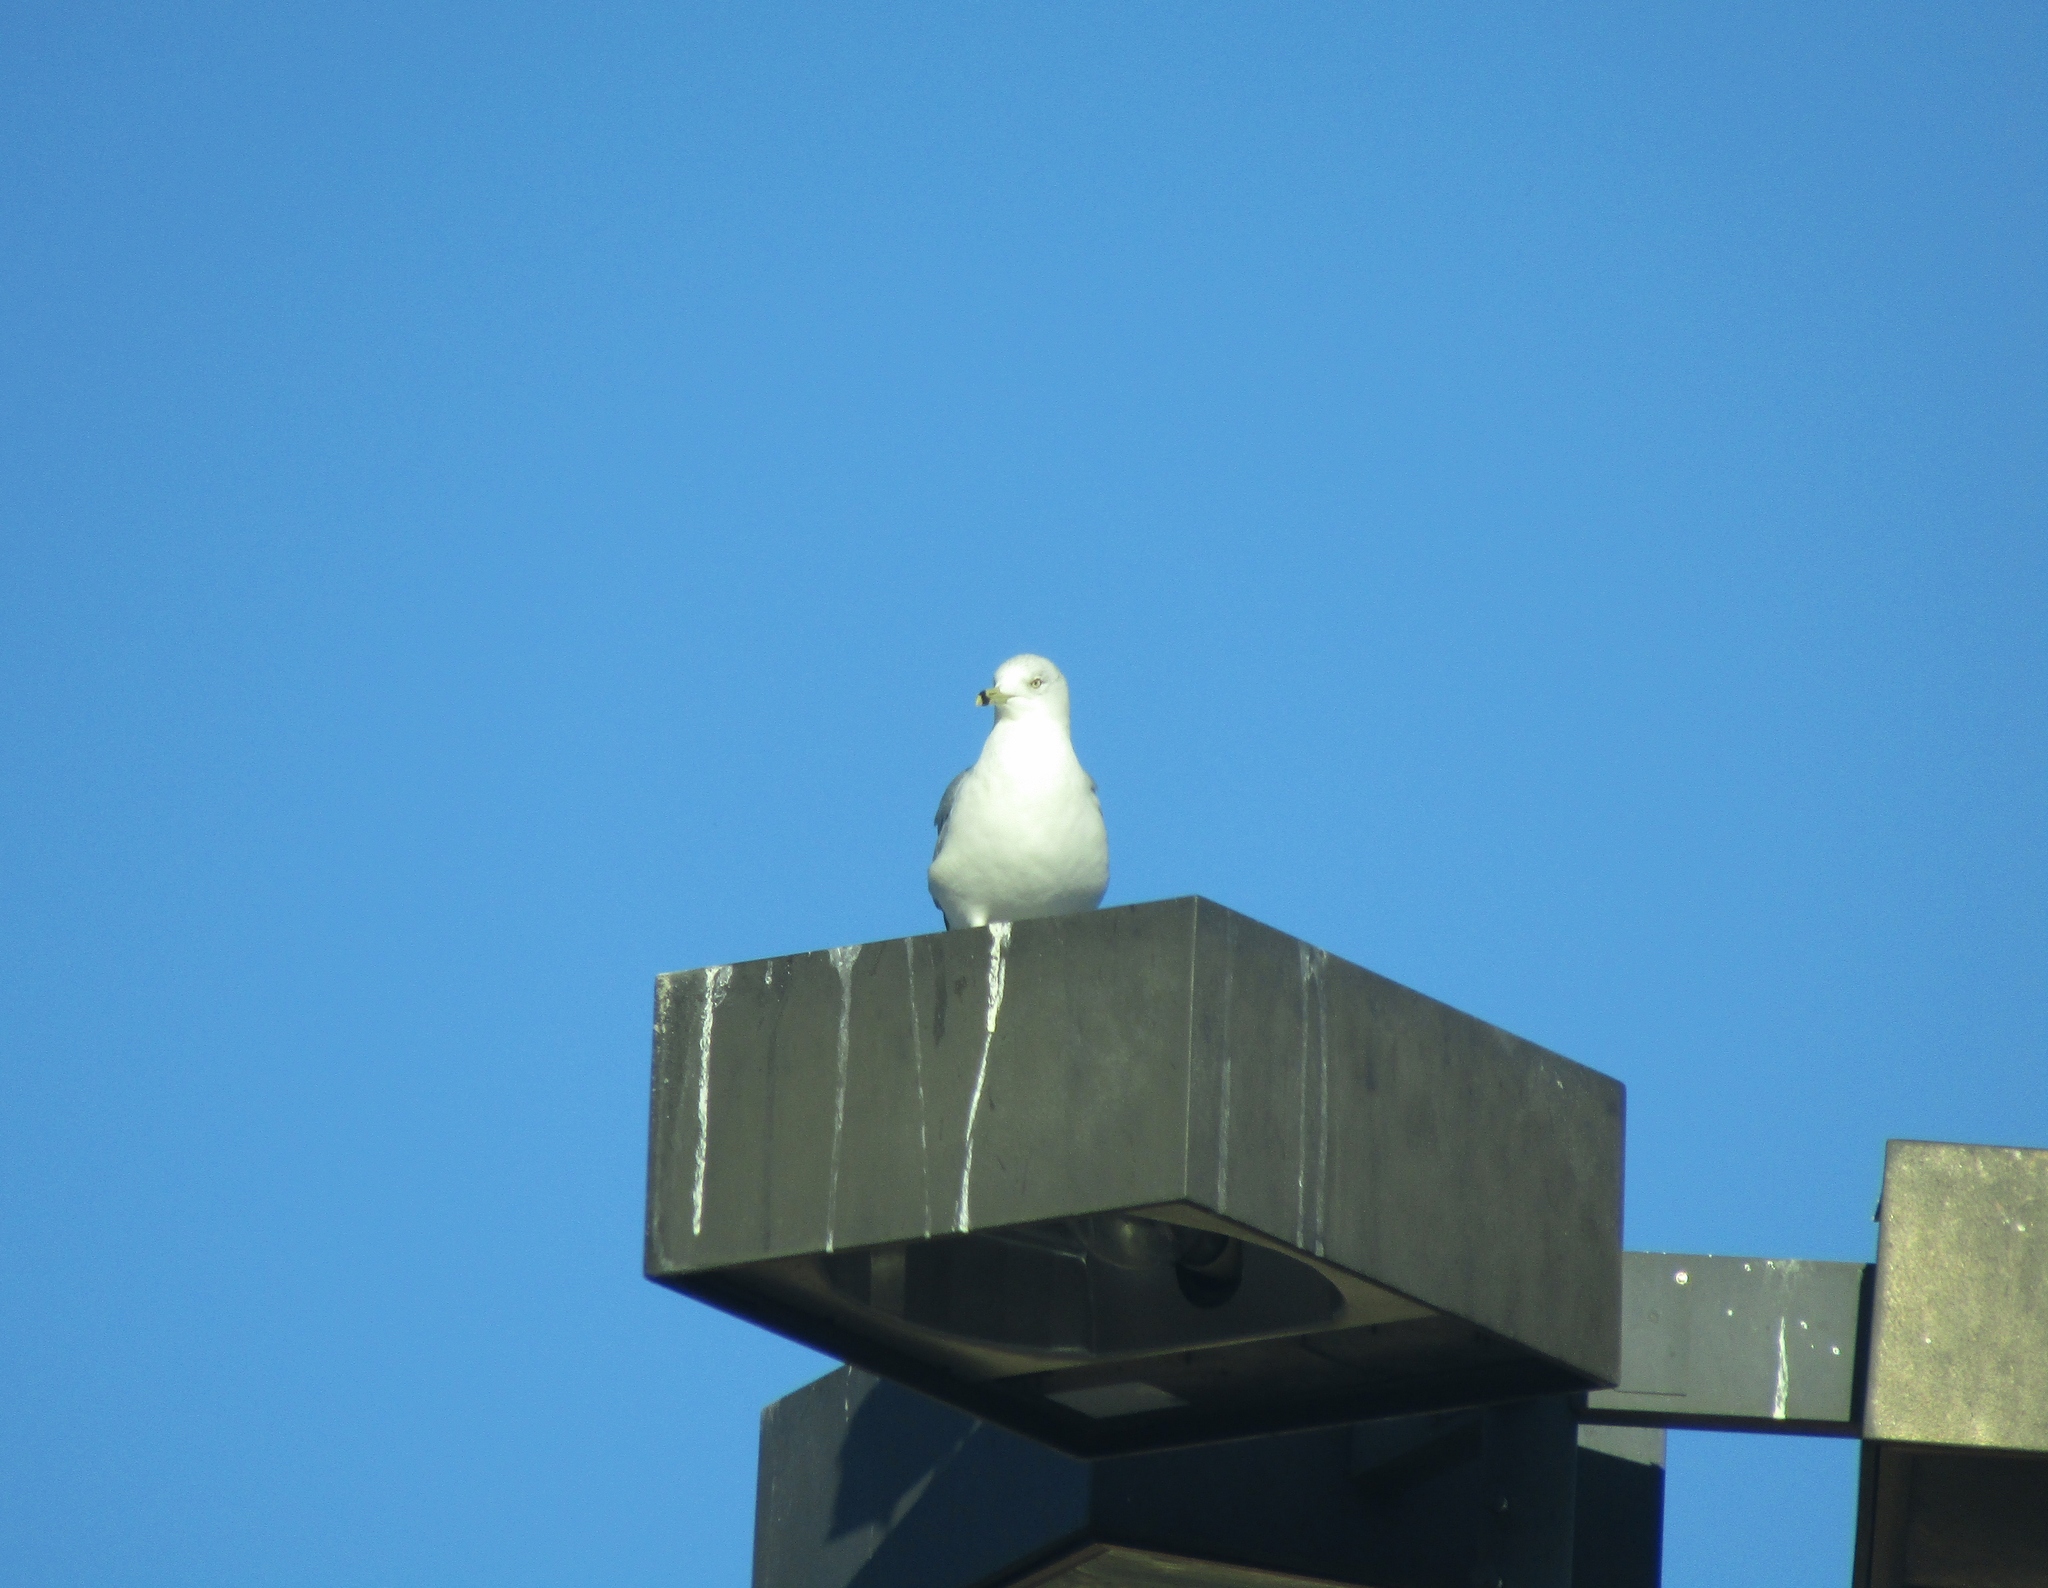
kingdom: Animalia
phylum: Chordata
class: Aves
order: Charadriiformes
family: Laridae
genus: Larus
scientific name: Larus delawarensis
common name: Ring-billed gull
